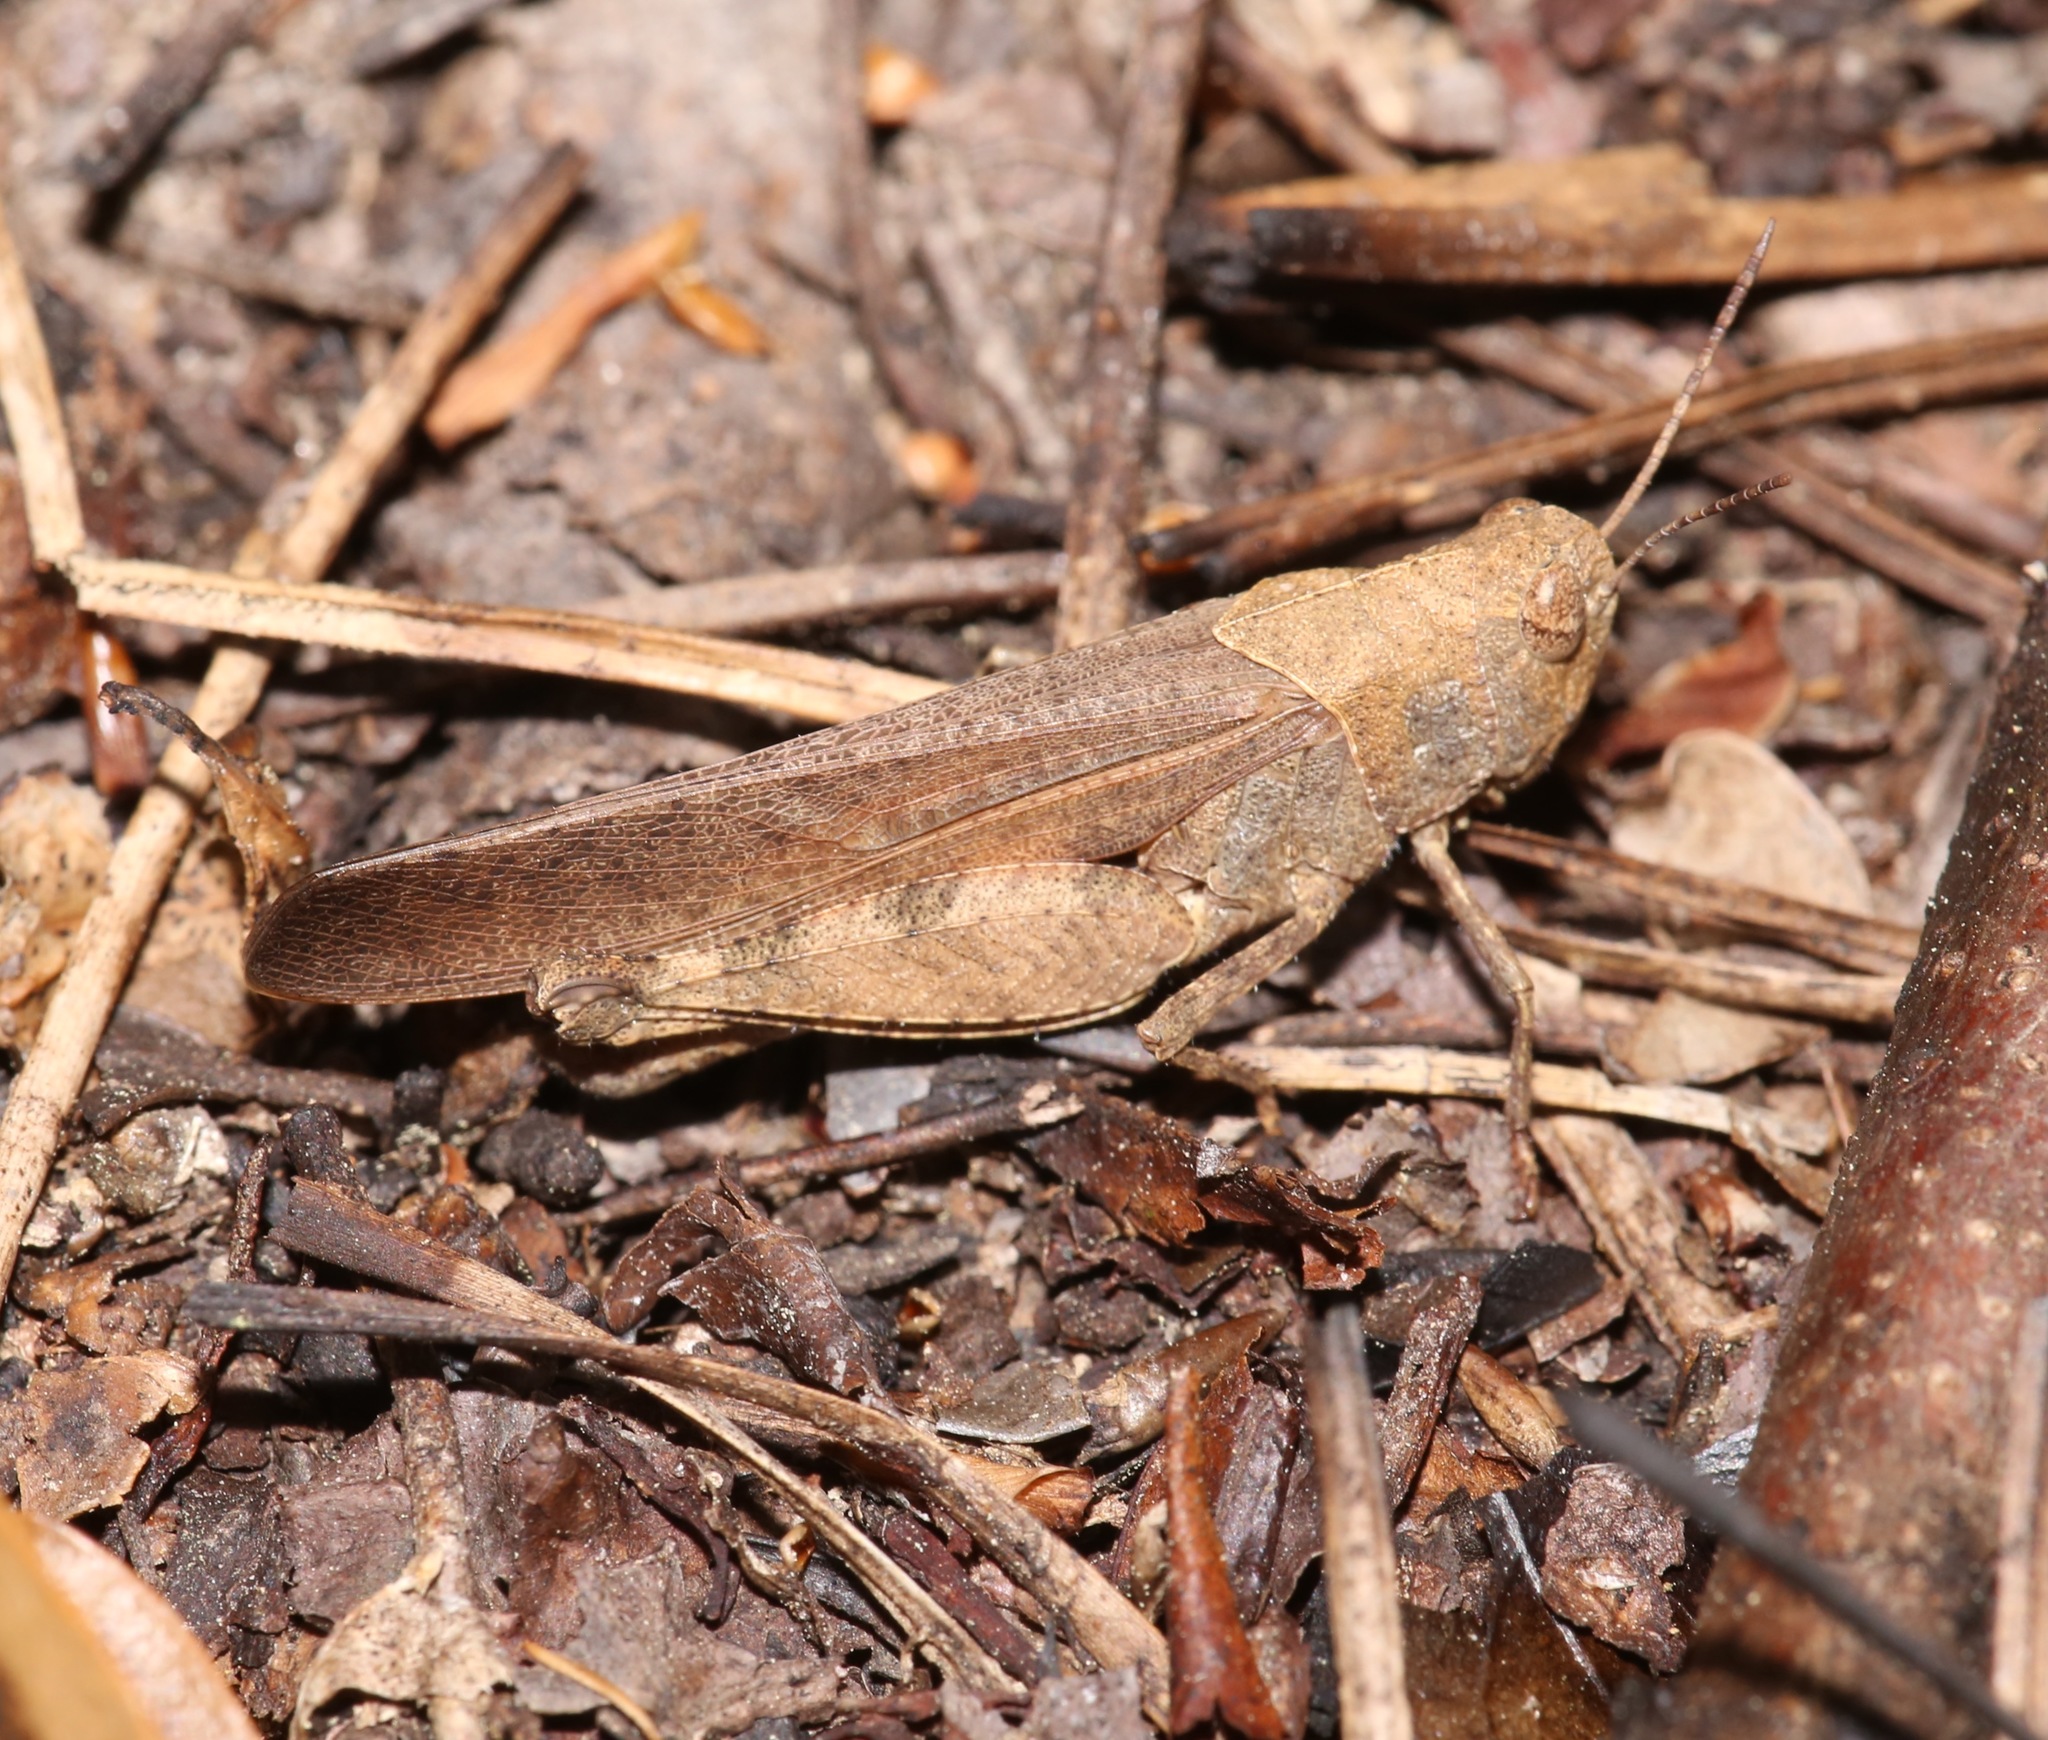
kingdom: Animalia
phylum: Arthropoda
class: Insecta
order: Orthoptera
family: Acrididae
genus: Arphia
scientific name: Arphia granulata
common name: Southern yellow-winged grasshopper
